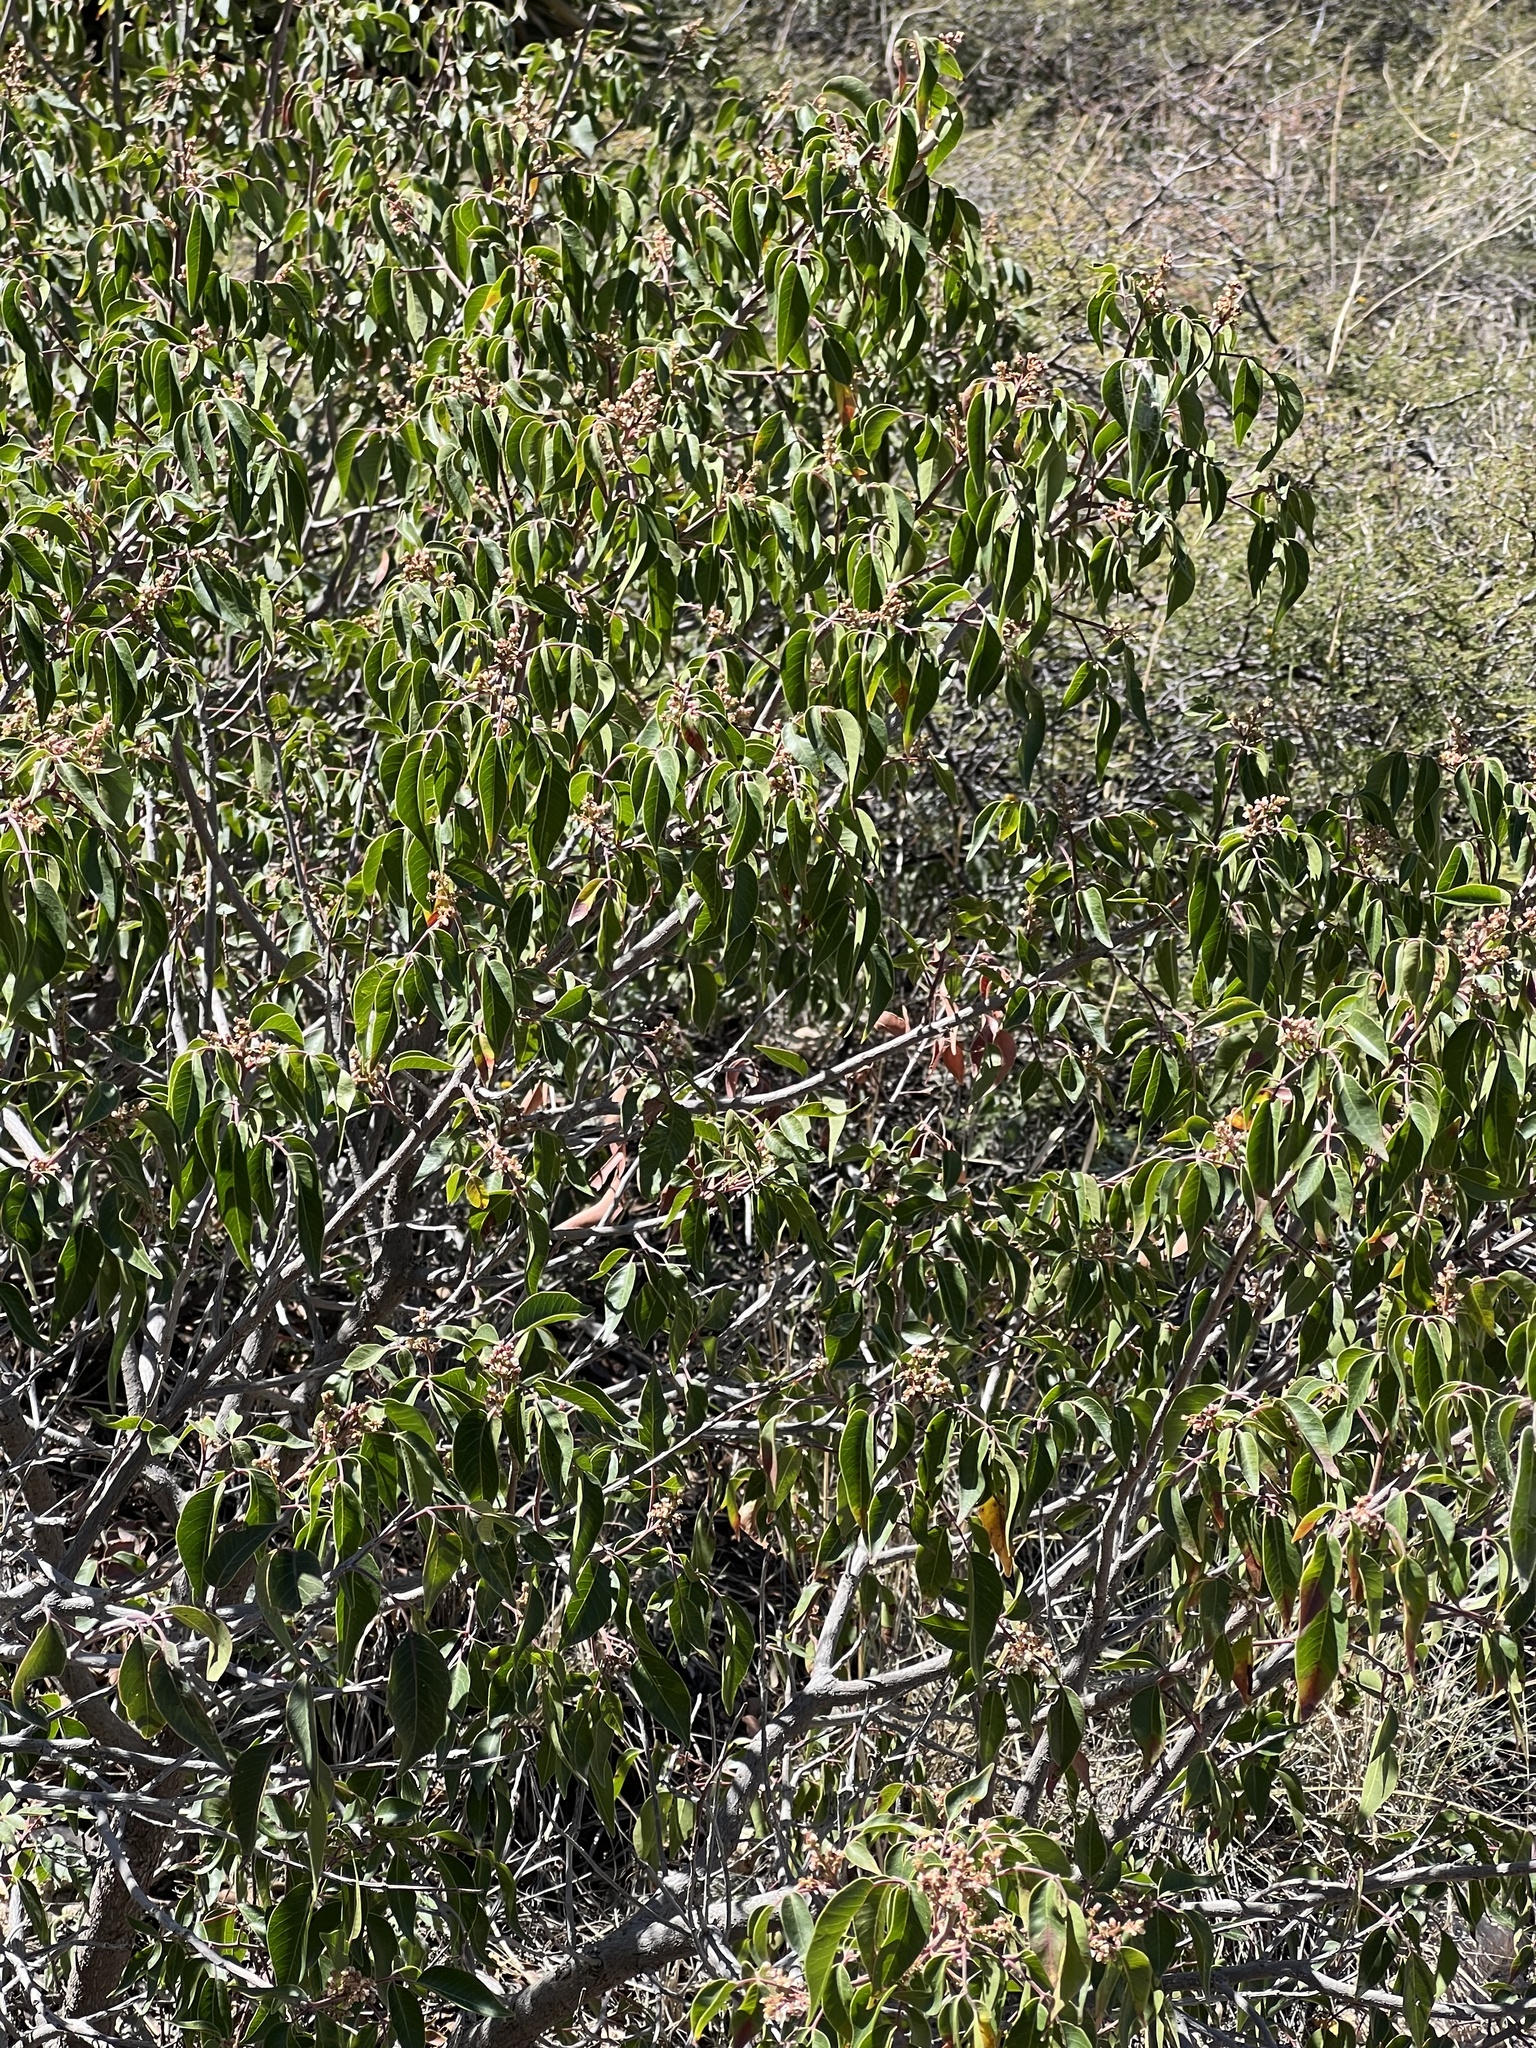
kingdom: Plantae
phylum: Tracheophyta
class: Magnoliopsida
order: Sapindales
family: Anacardiaceae
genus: Rhus
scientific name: Rhus virens
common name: Evergreen sumac
